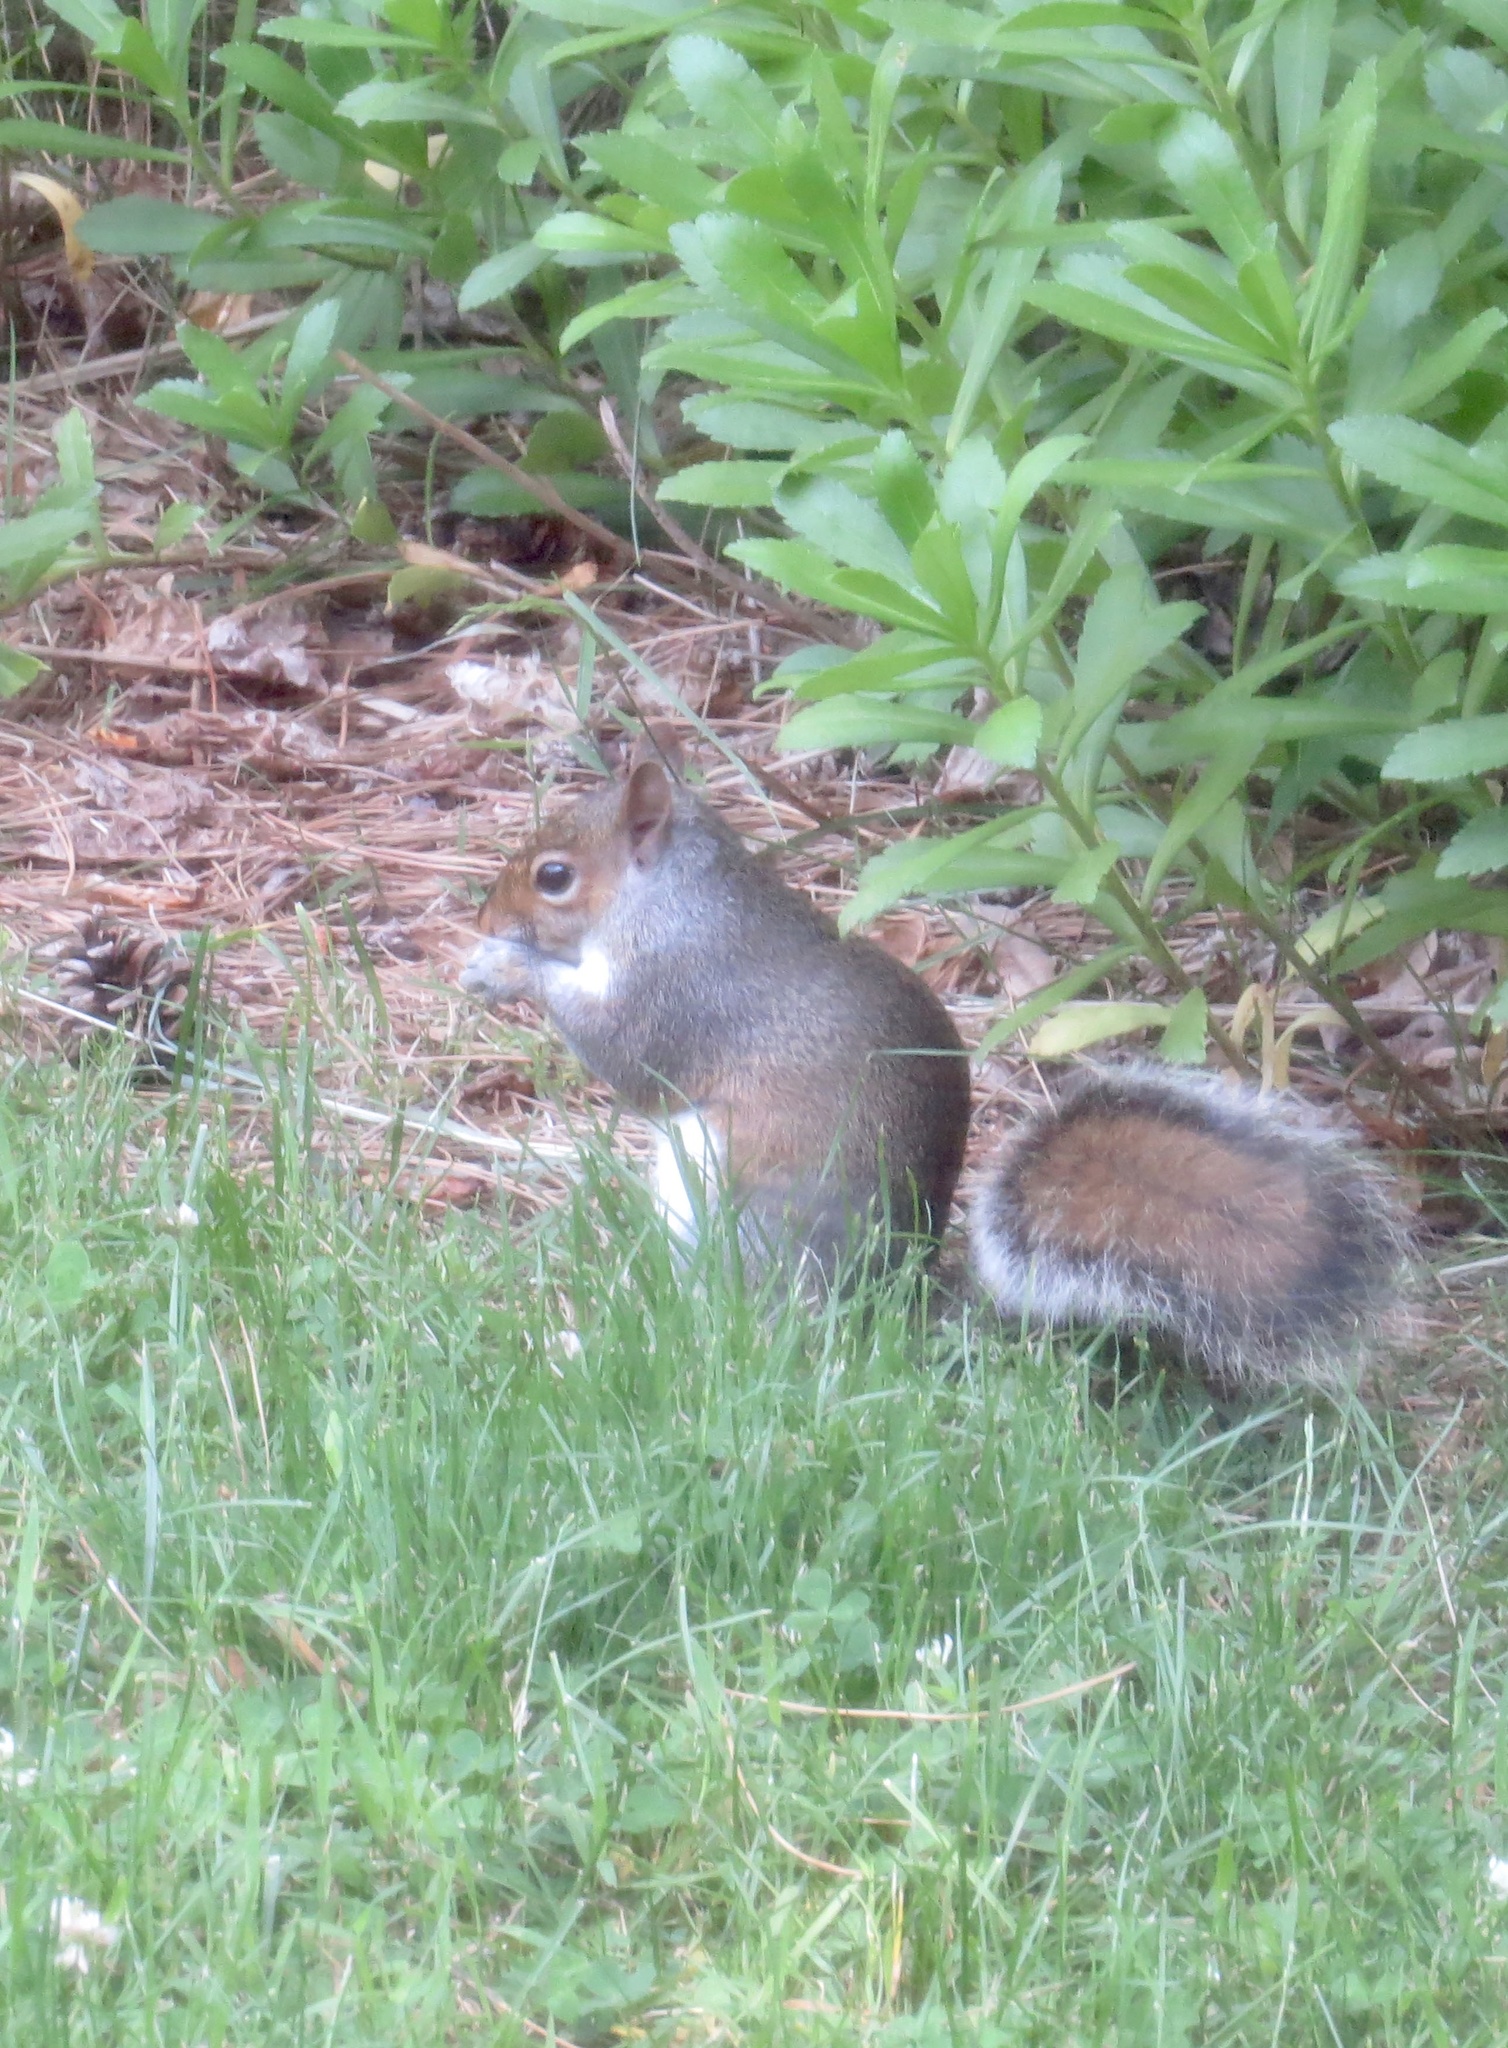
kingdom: Animalia
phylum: Chordata
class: Mammalia
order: Rodentia
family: Sciuridae
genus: Sciurus
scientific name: Sciurus carolinensis
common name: Eastern gray squirrel
